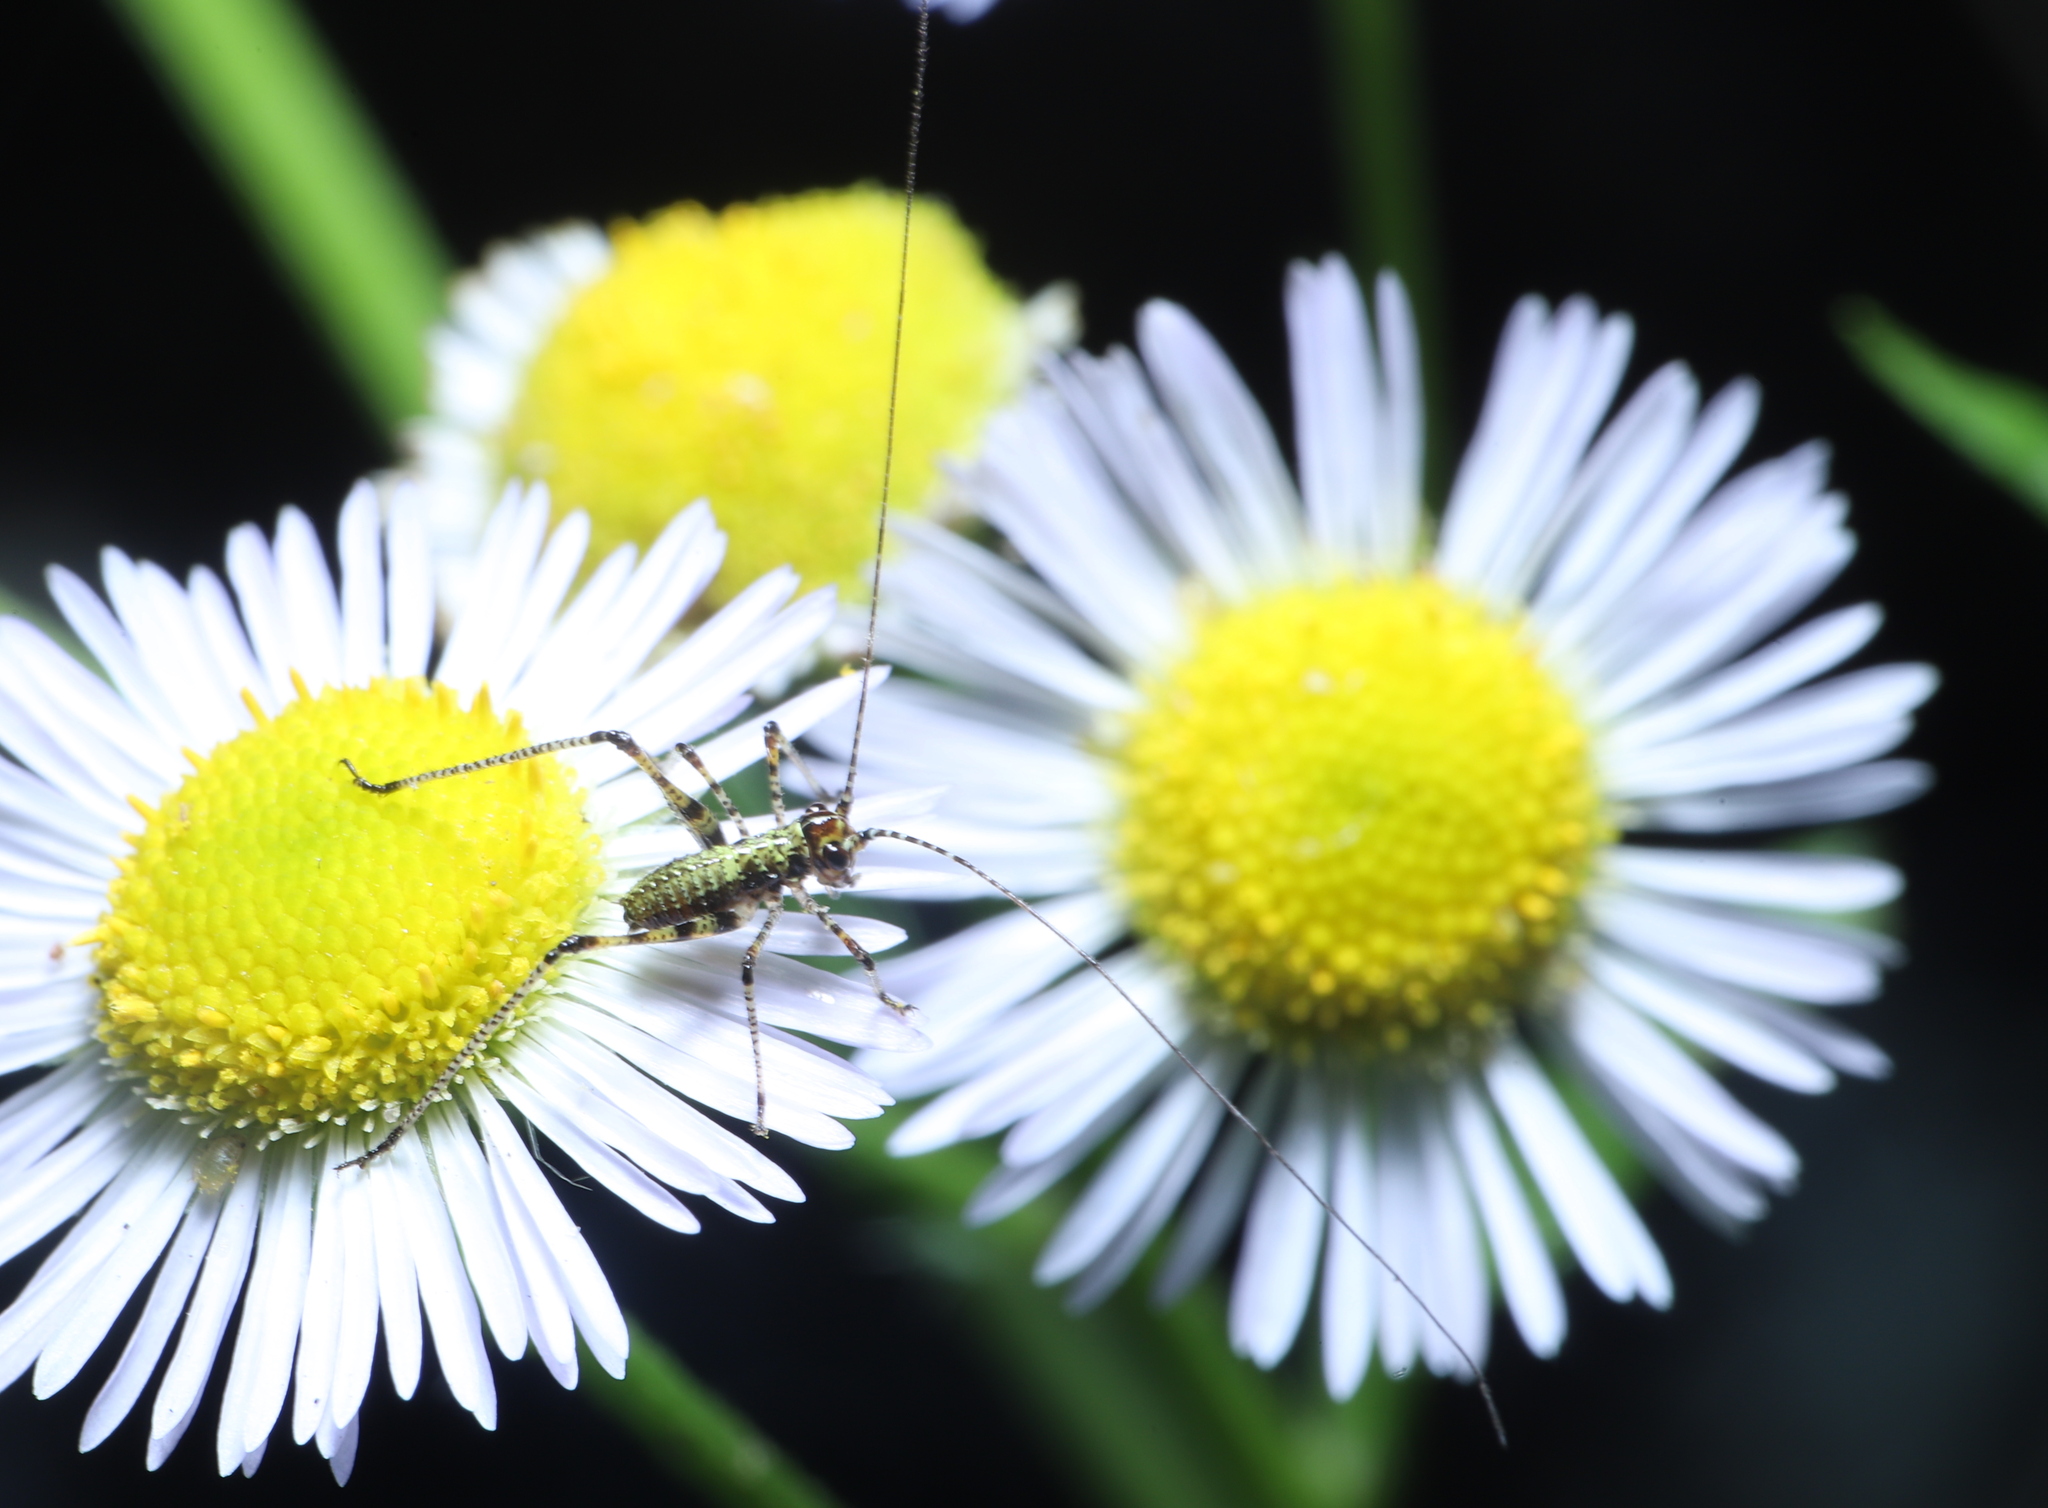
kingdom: Animalia
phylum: Arthropoda
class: Insecta
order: Orthoptera
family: Tettigoniidae
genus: Phaneroptera
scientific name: Phaneroptera nana
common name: Southern sickle bush-cricket
